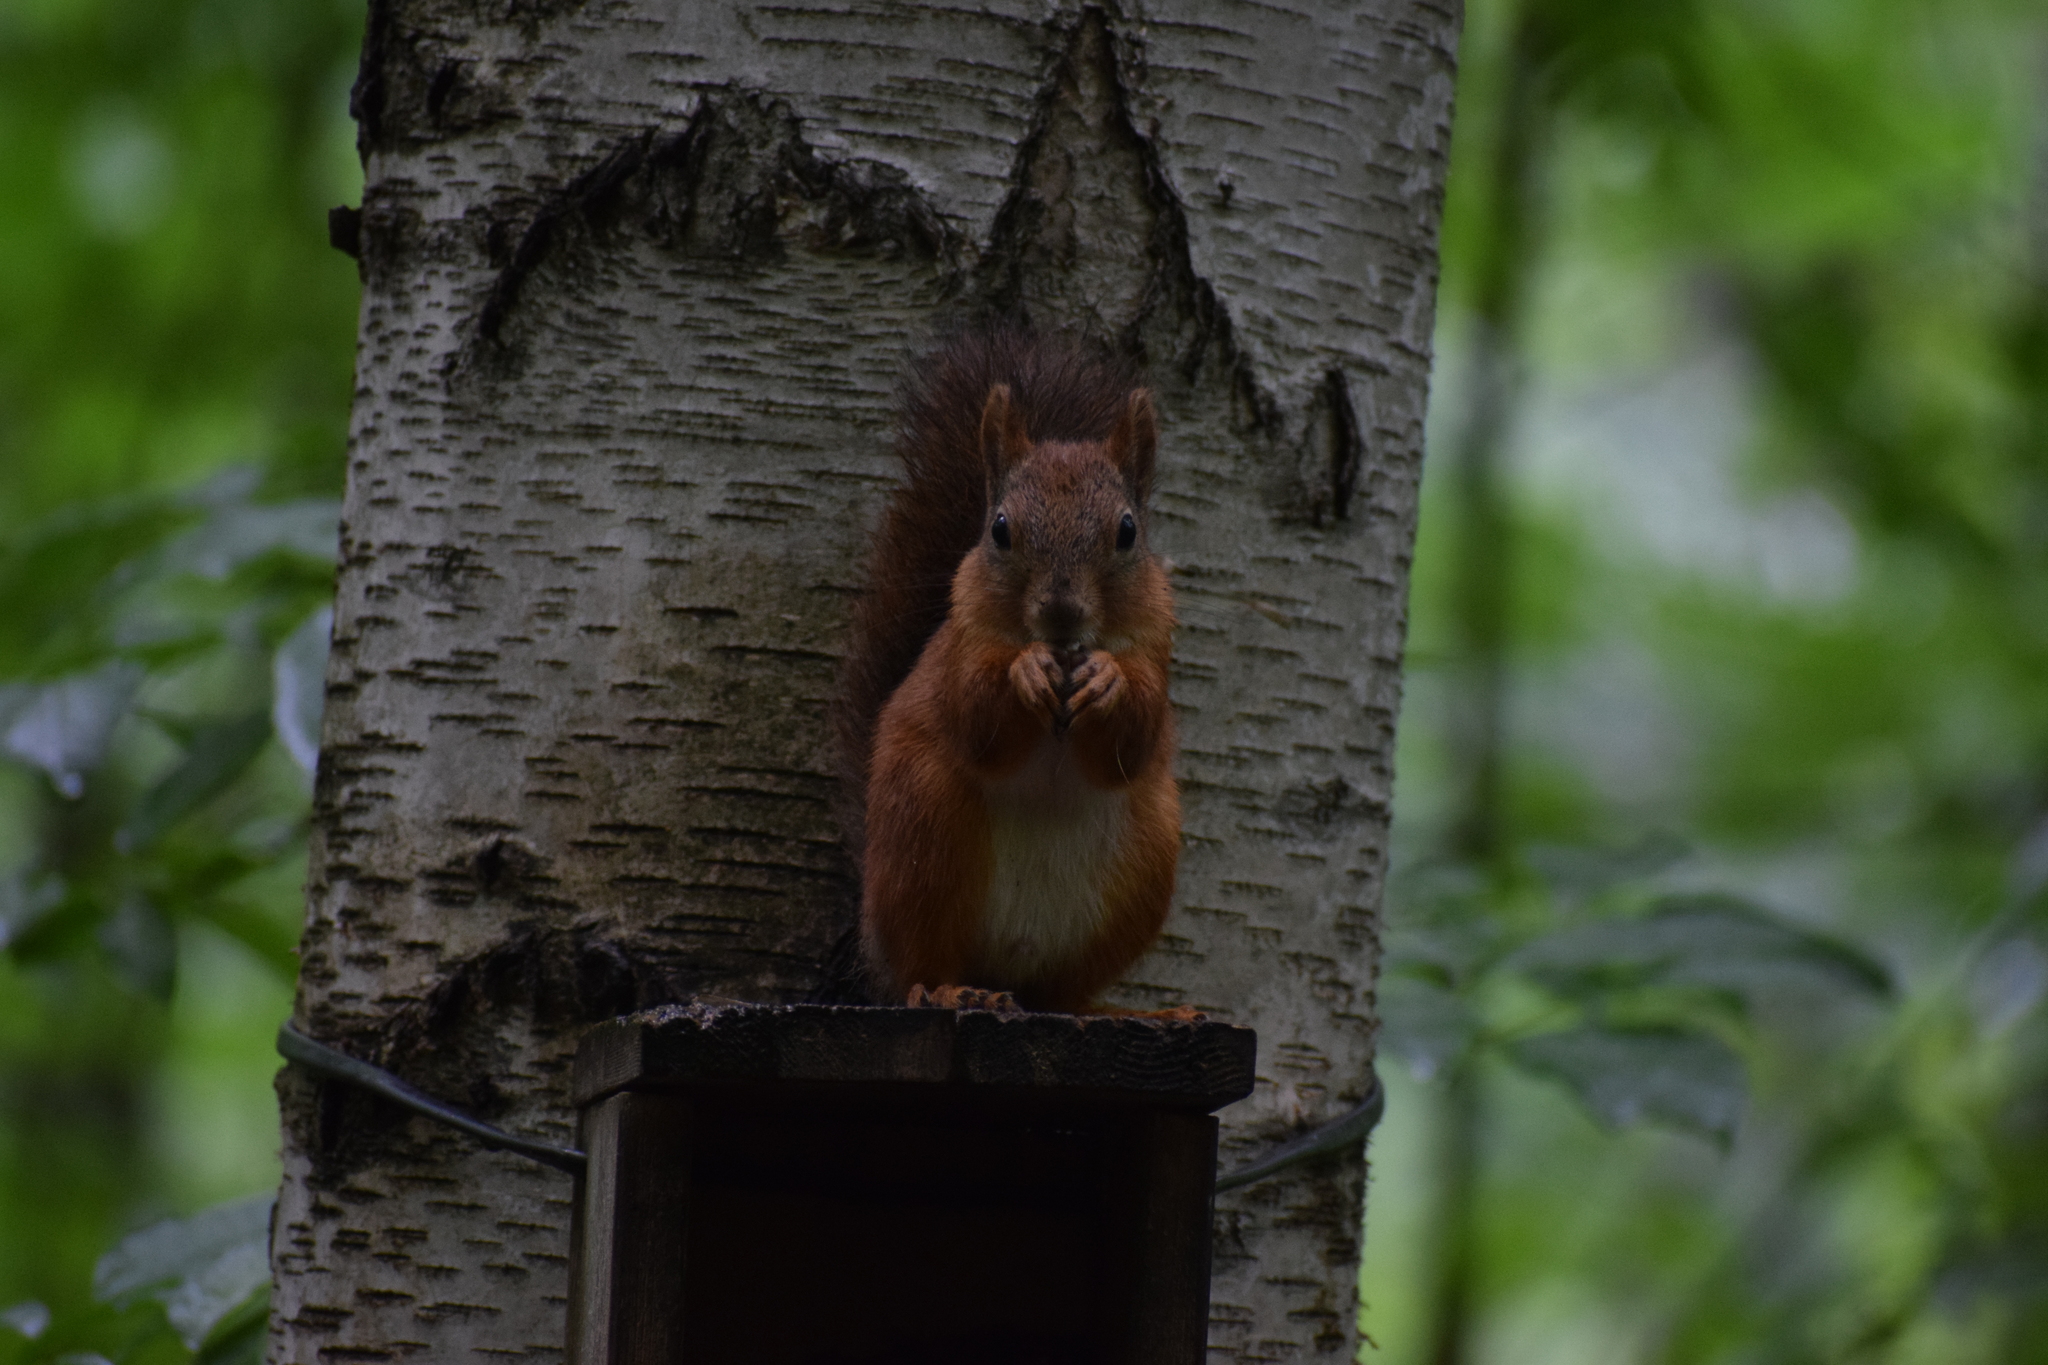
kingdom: Animalia
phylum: Chordata
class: Mammalia
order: Rodentia
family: Sciuridae
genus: Sciurus
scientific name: Sciurus vulgaris
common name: Eurasian red squirrel
